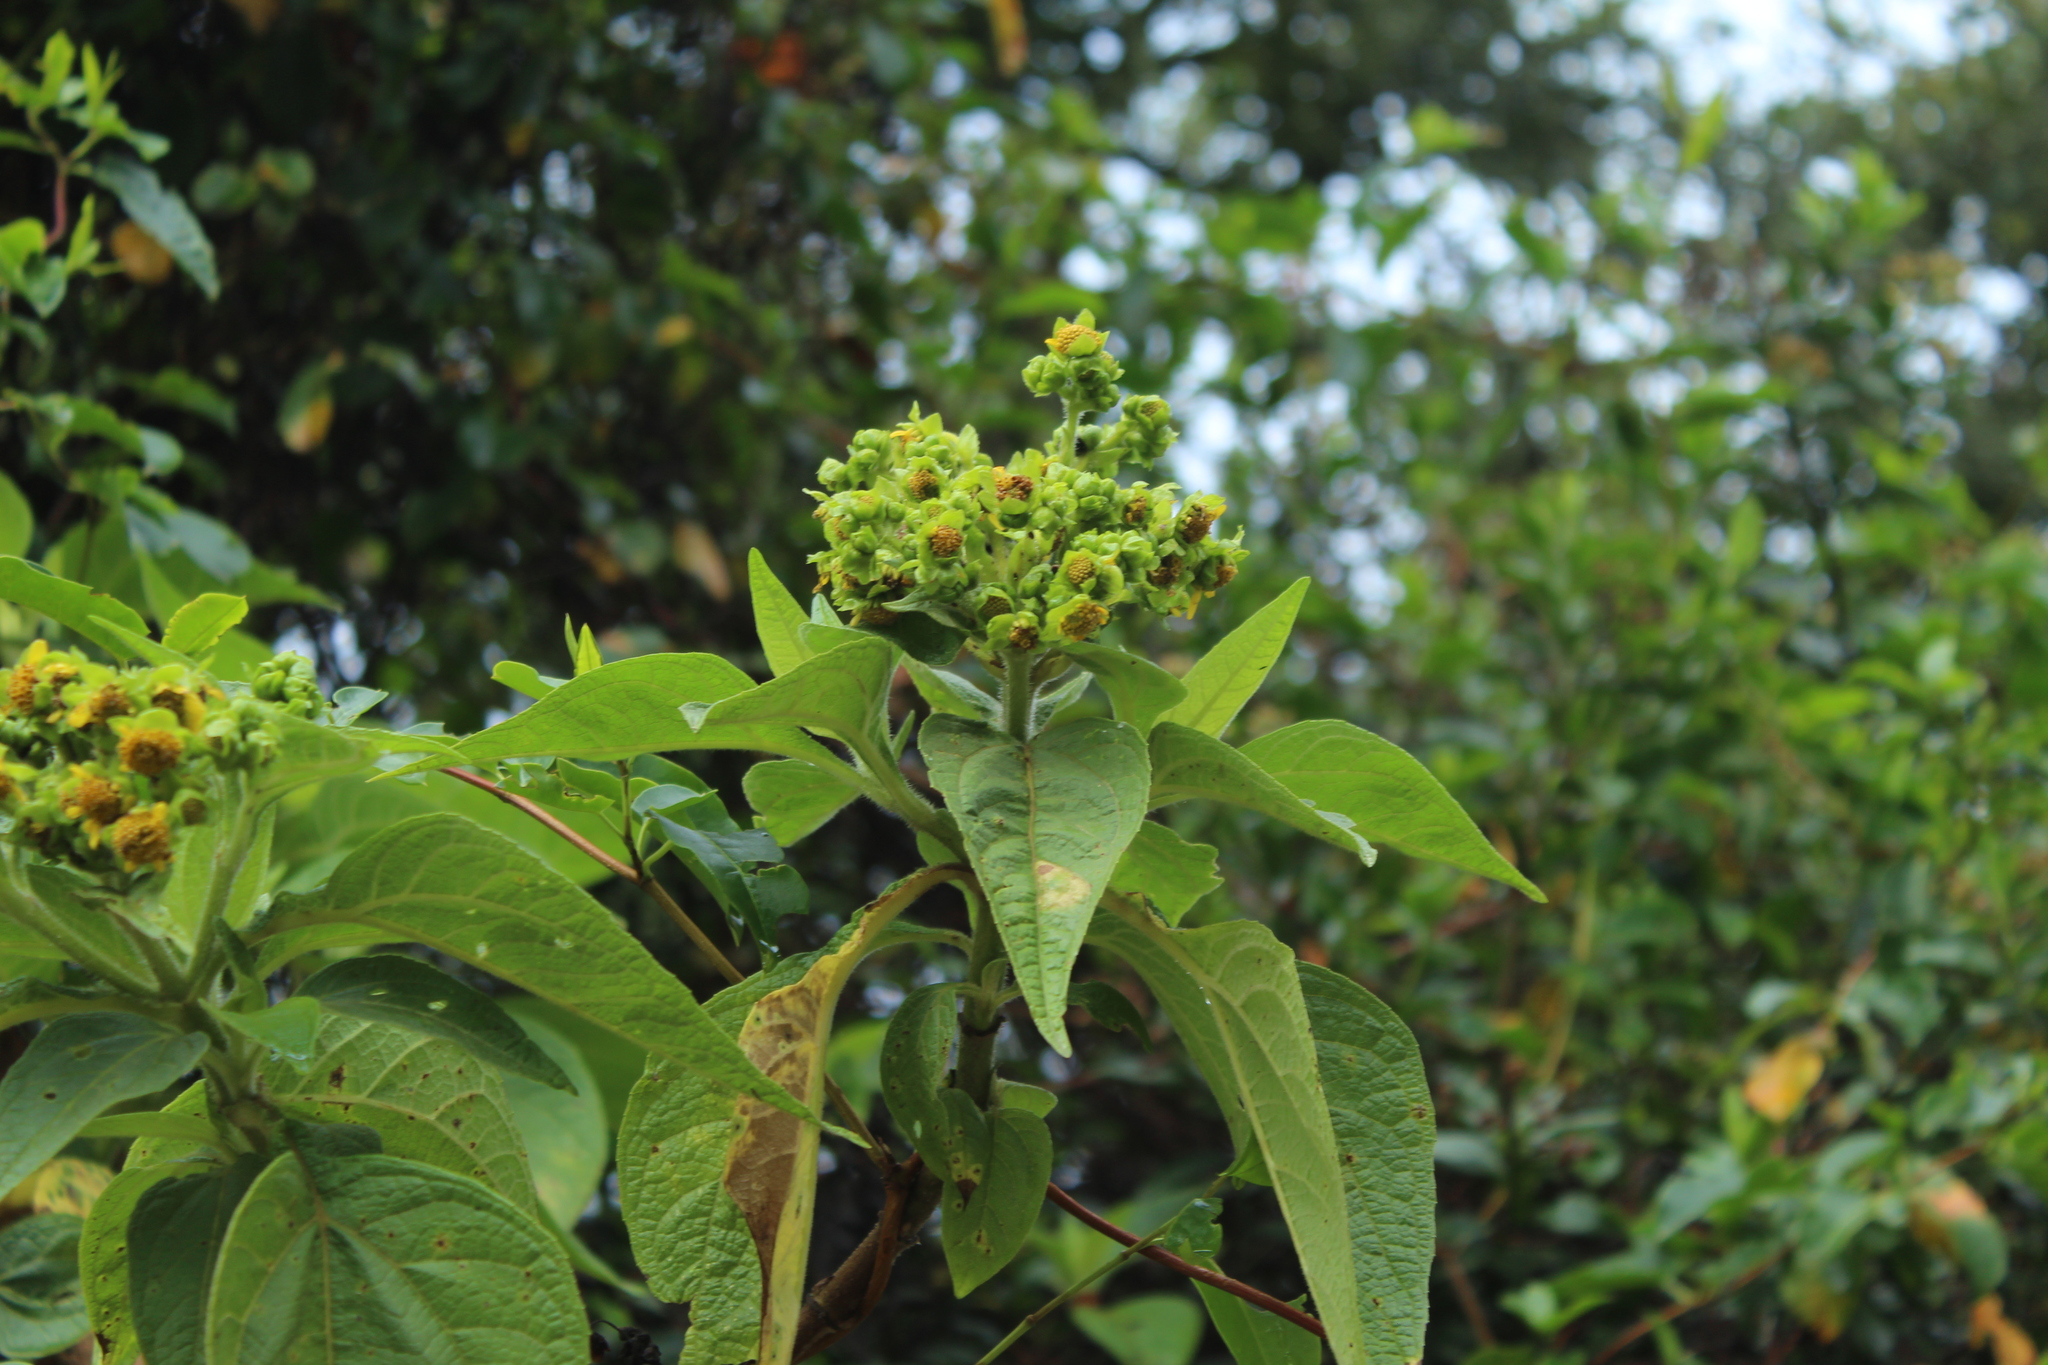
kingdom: Plantae
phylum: Tracheophyta
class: Magnoliopsida
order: Asterales
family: Asteraceae
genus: Smallanthus
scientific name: Smallanthus pyramidalis
